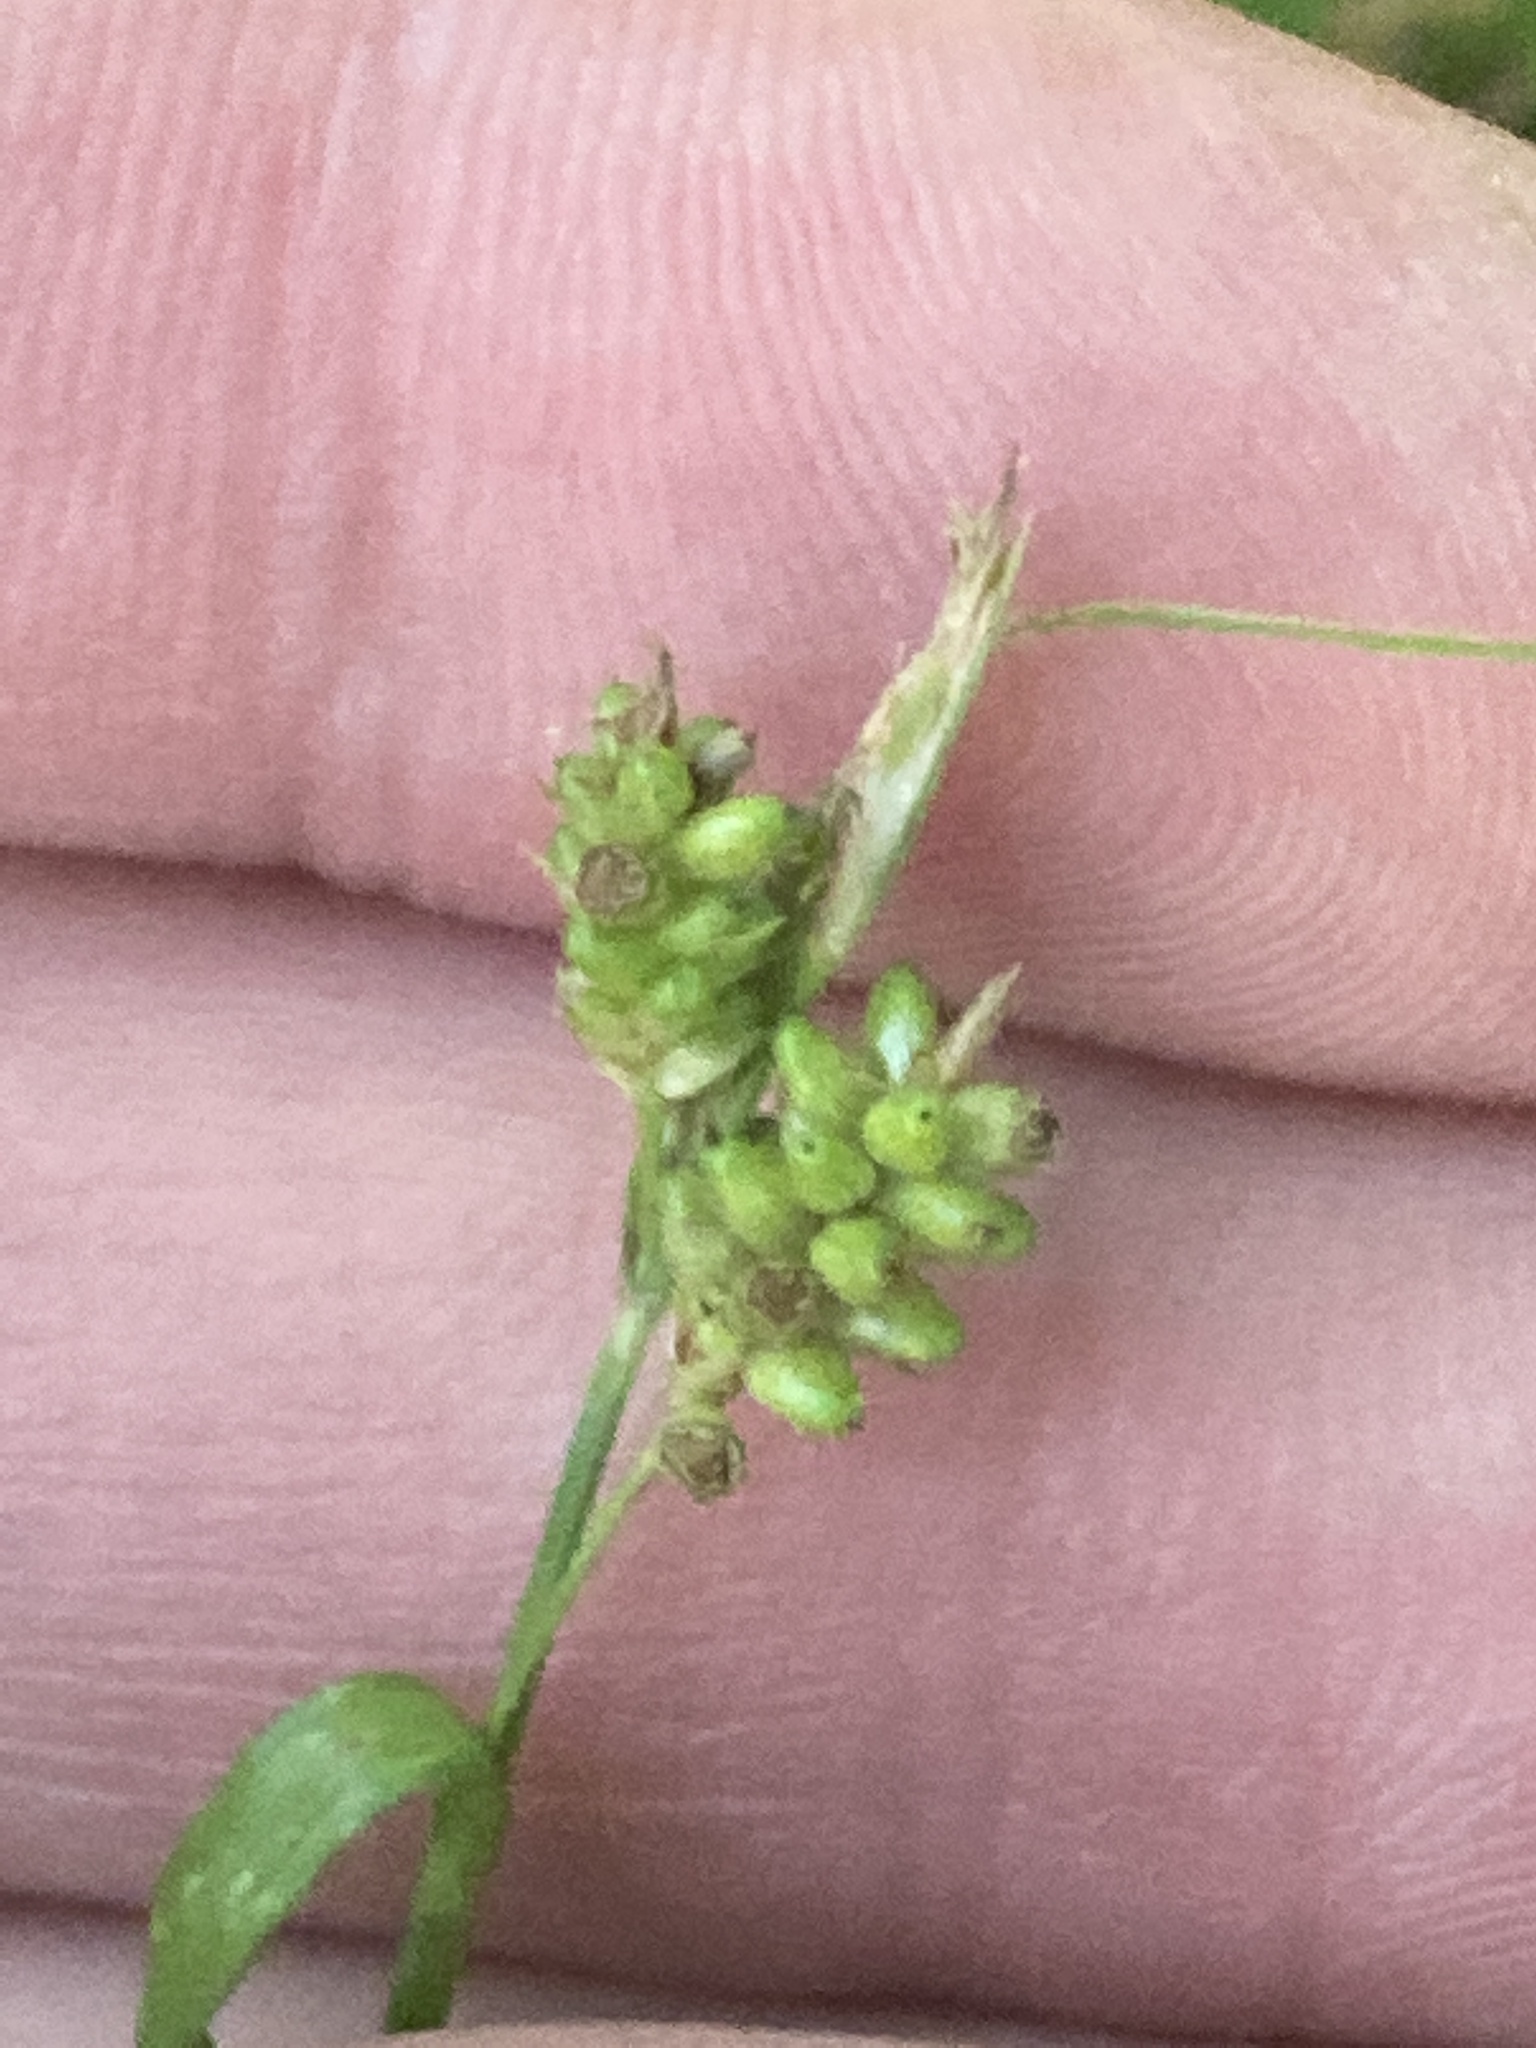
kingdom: Plantae
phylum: Tracheophyta
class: Liliopsida
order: Poales
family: Cyperaceae
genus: Carex
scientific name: Carex pallescens
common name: Pale sedge
